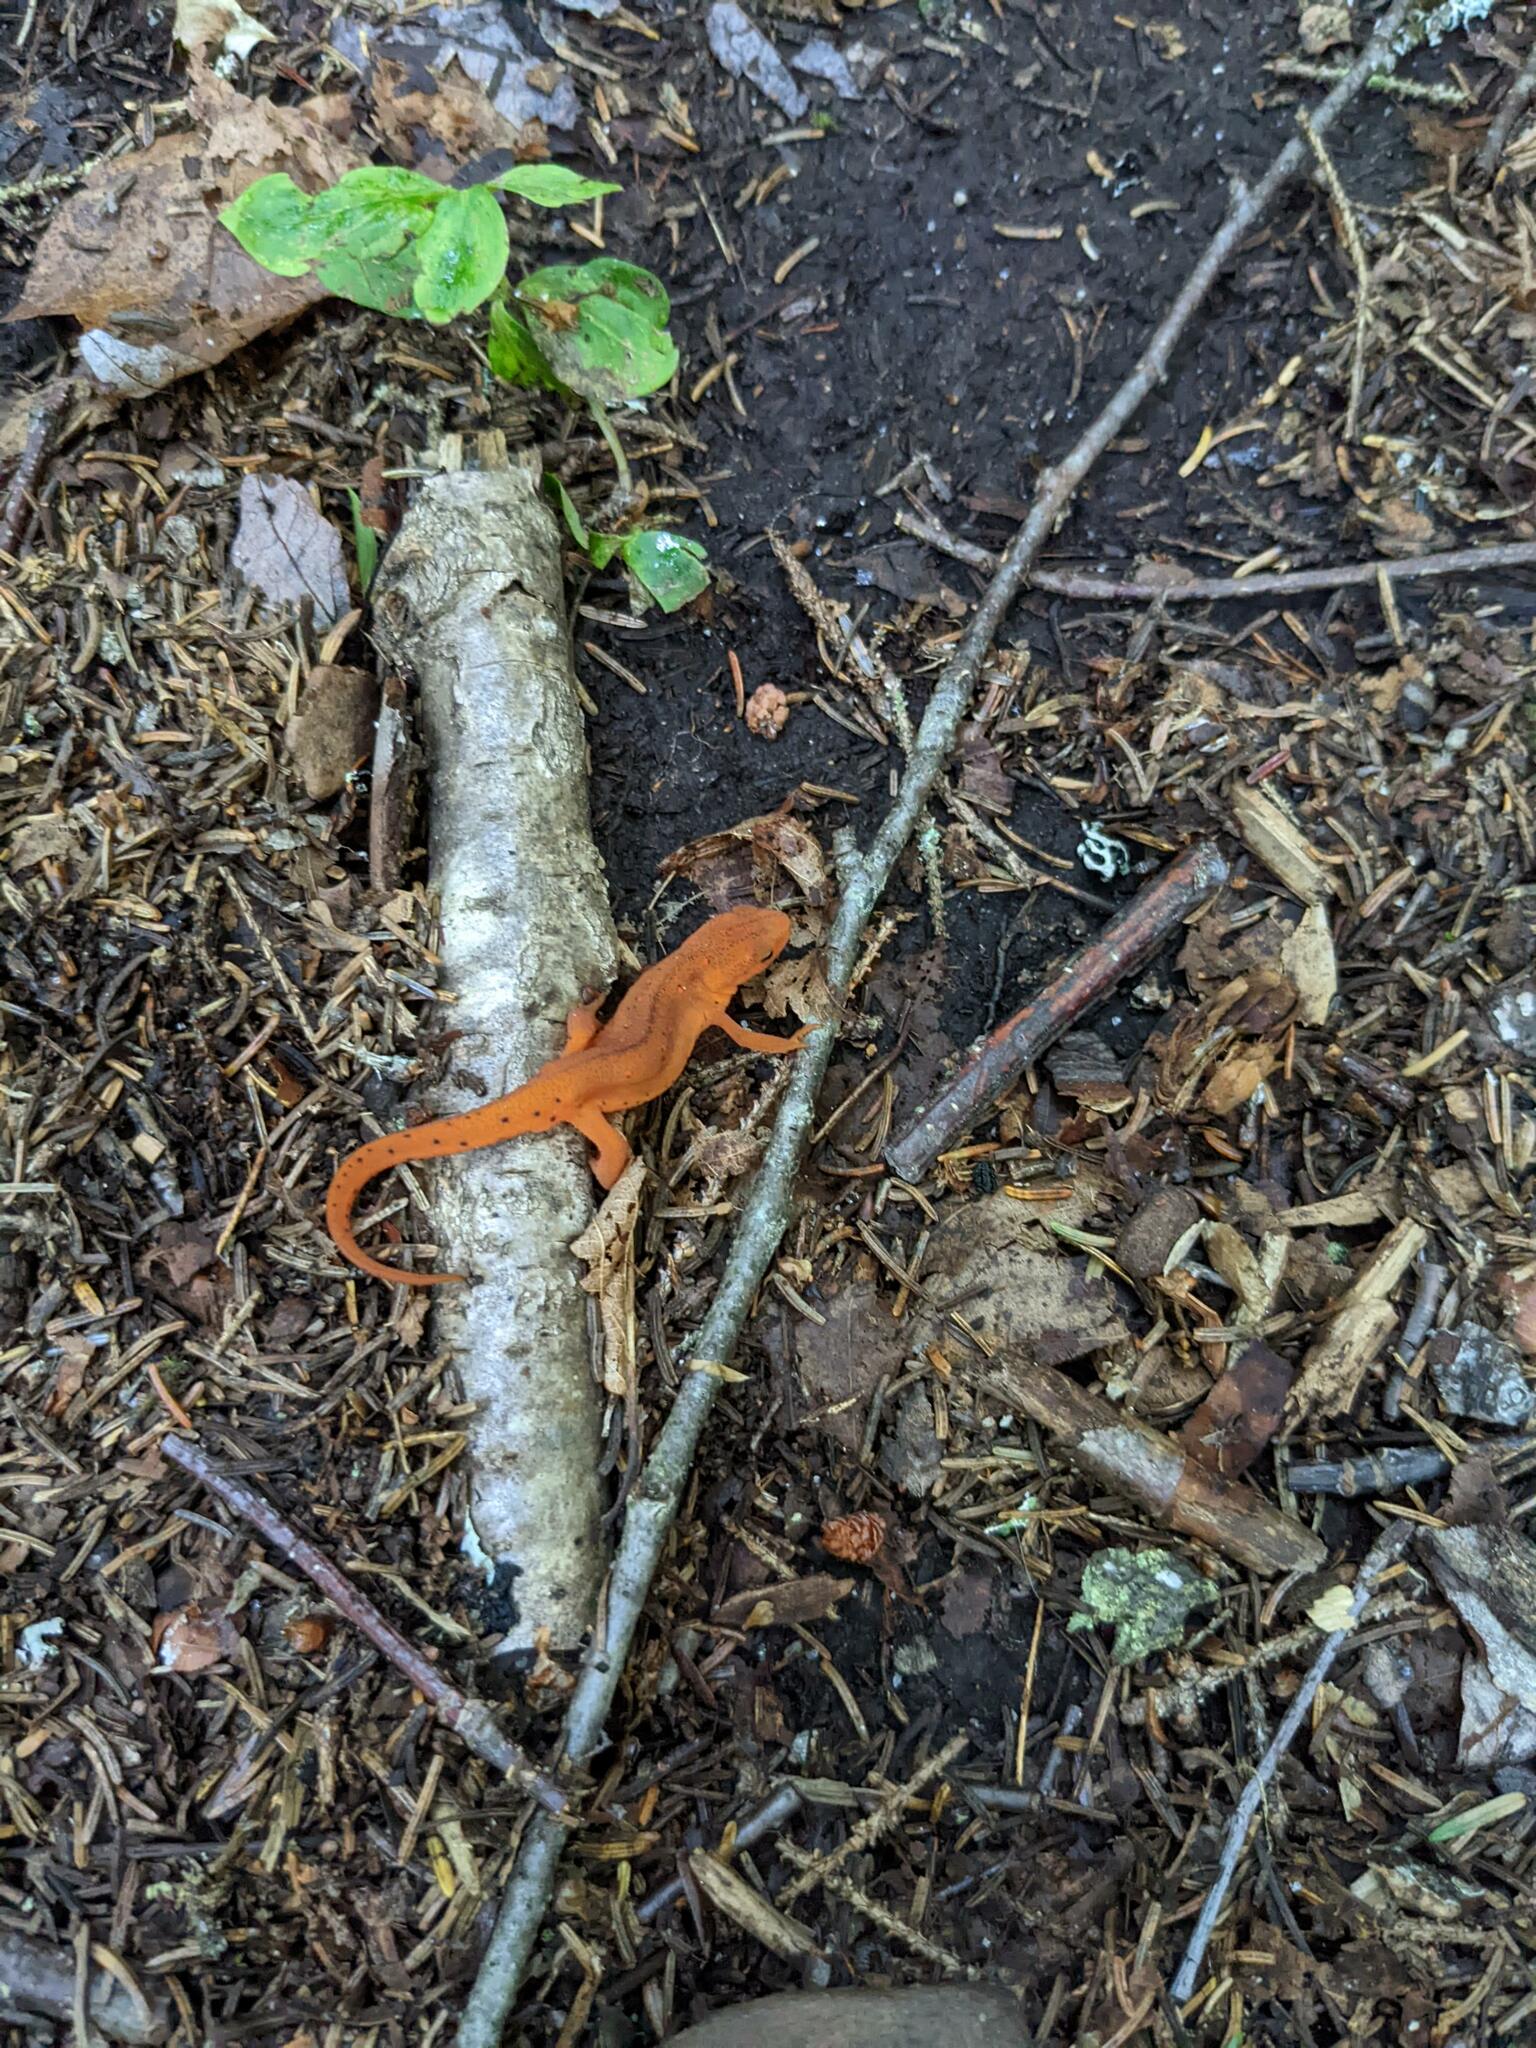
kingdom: Animalia
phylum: Chordata
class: Amphibia
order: Caudata
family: Salamandridae
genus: Notophthalmus
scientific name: Notophthalmus viridescens
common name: Eastern newt
